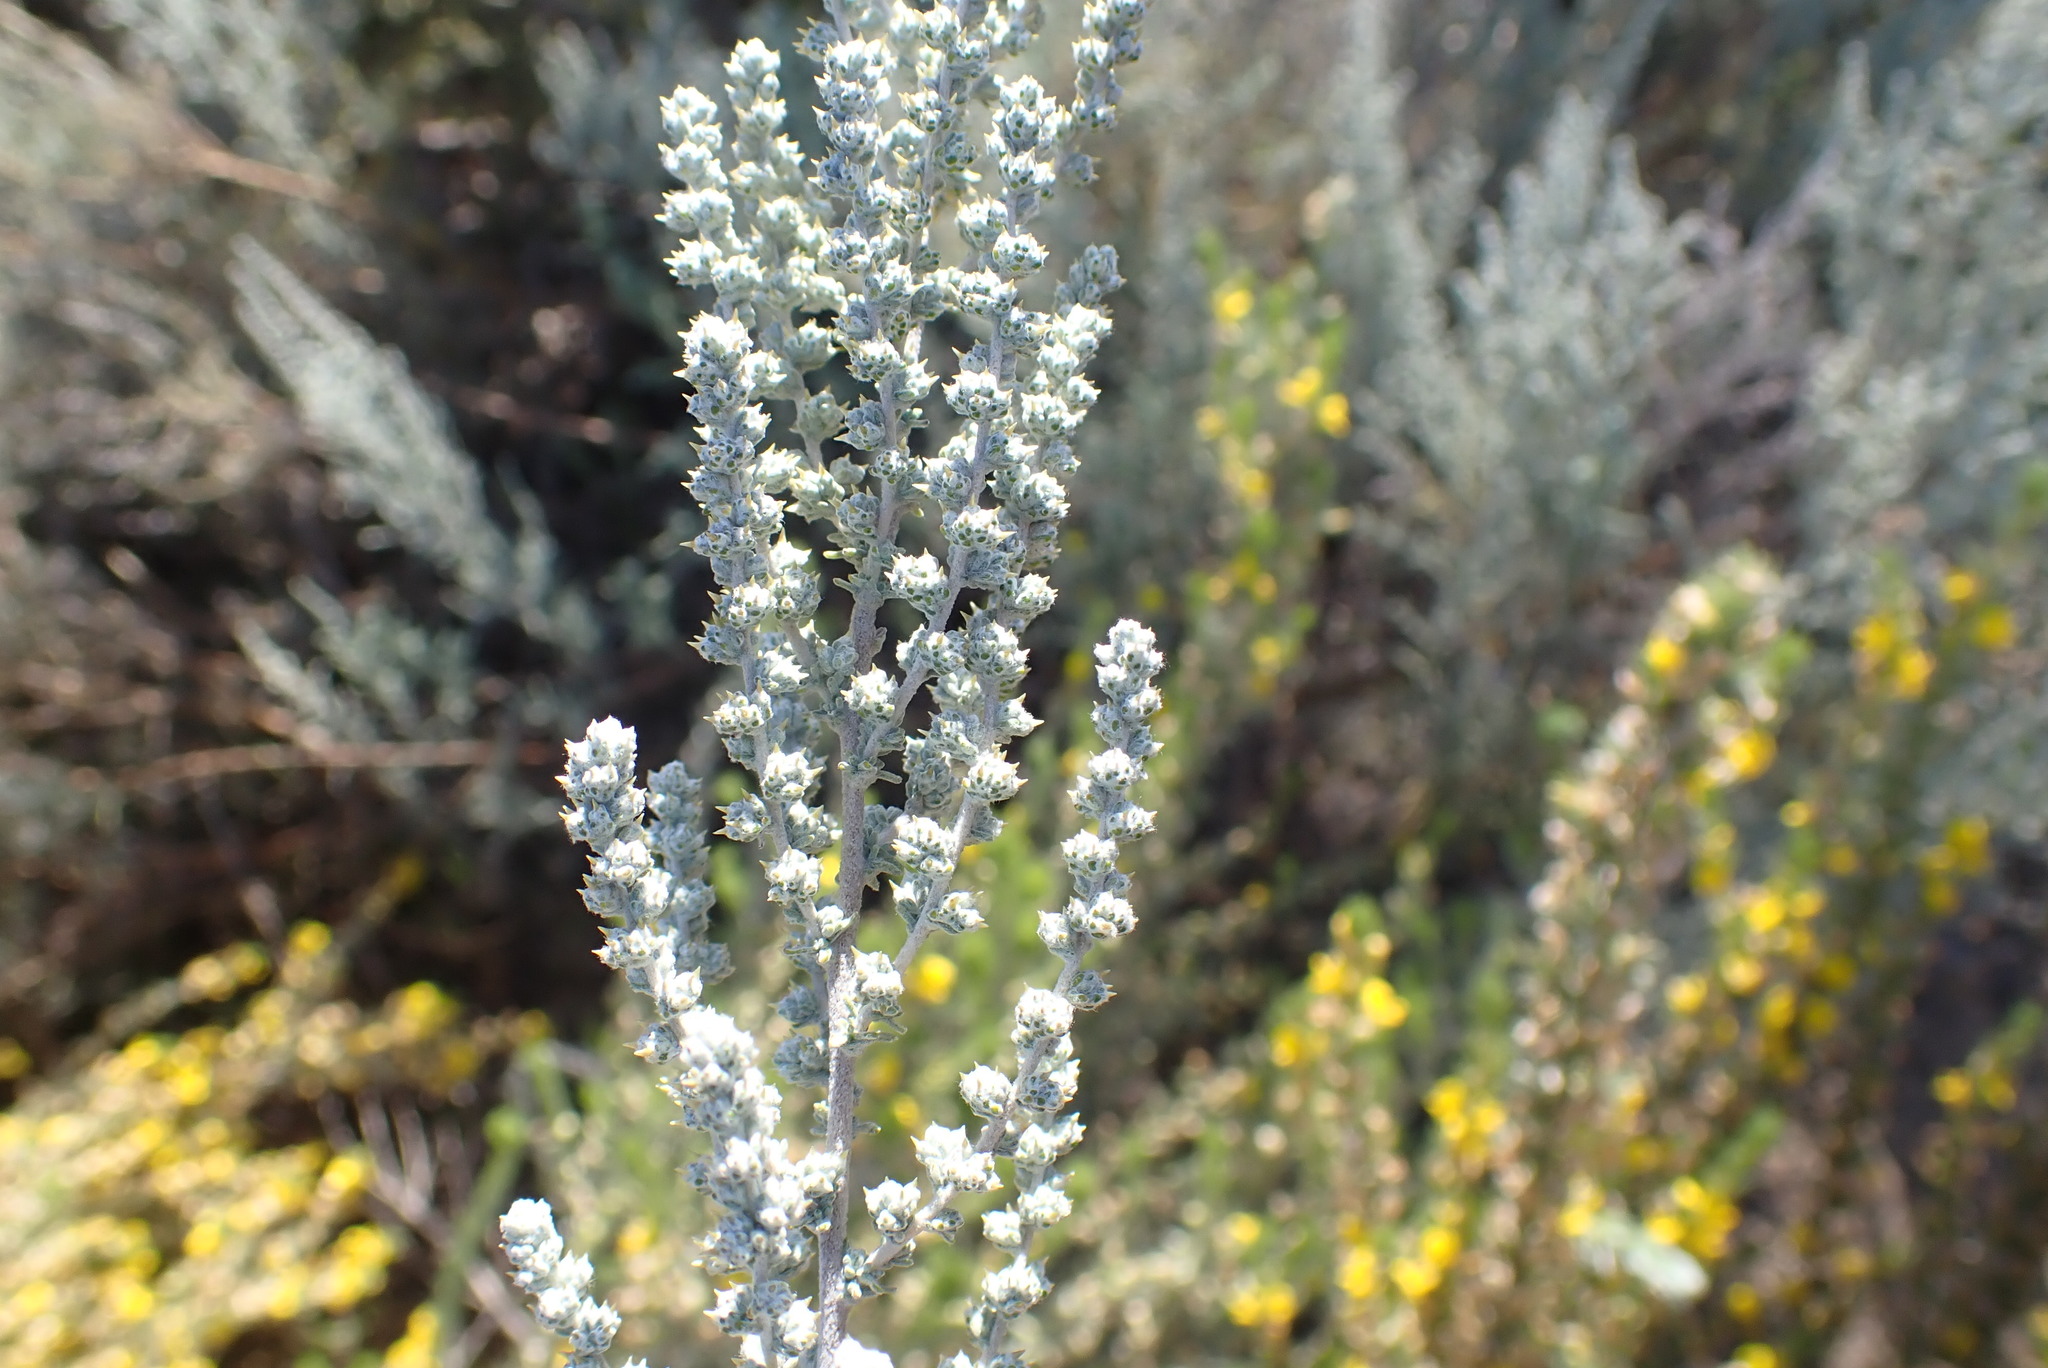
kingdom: Plantae
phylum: Tracheophyta
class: Magnoliopsida
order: Asterales
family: Asteraceae
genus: Seriphium
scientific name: Seriphium plumosum
